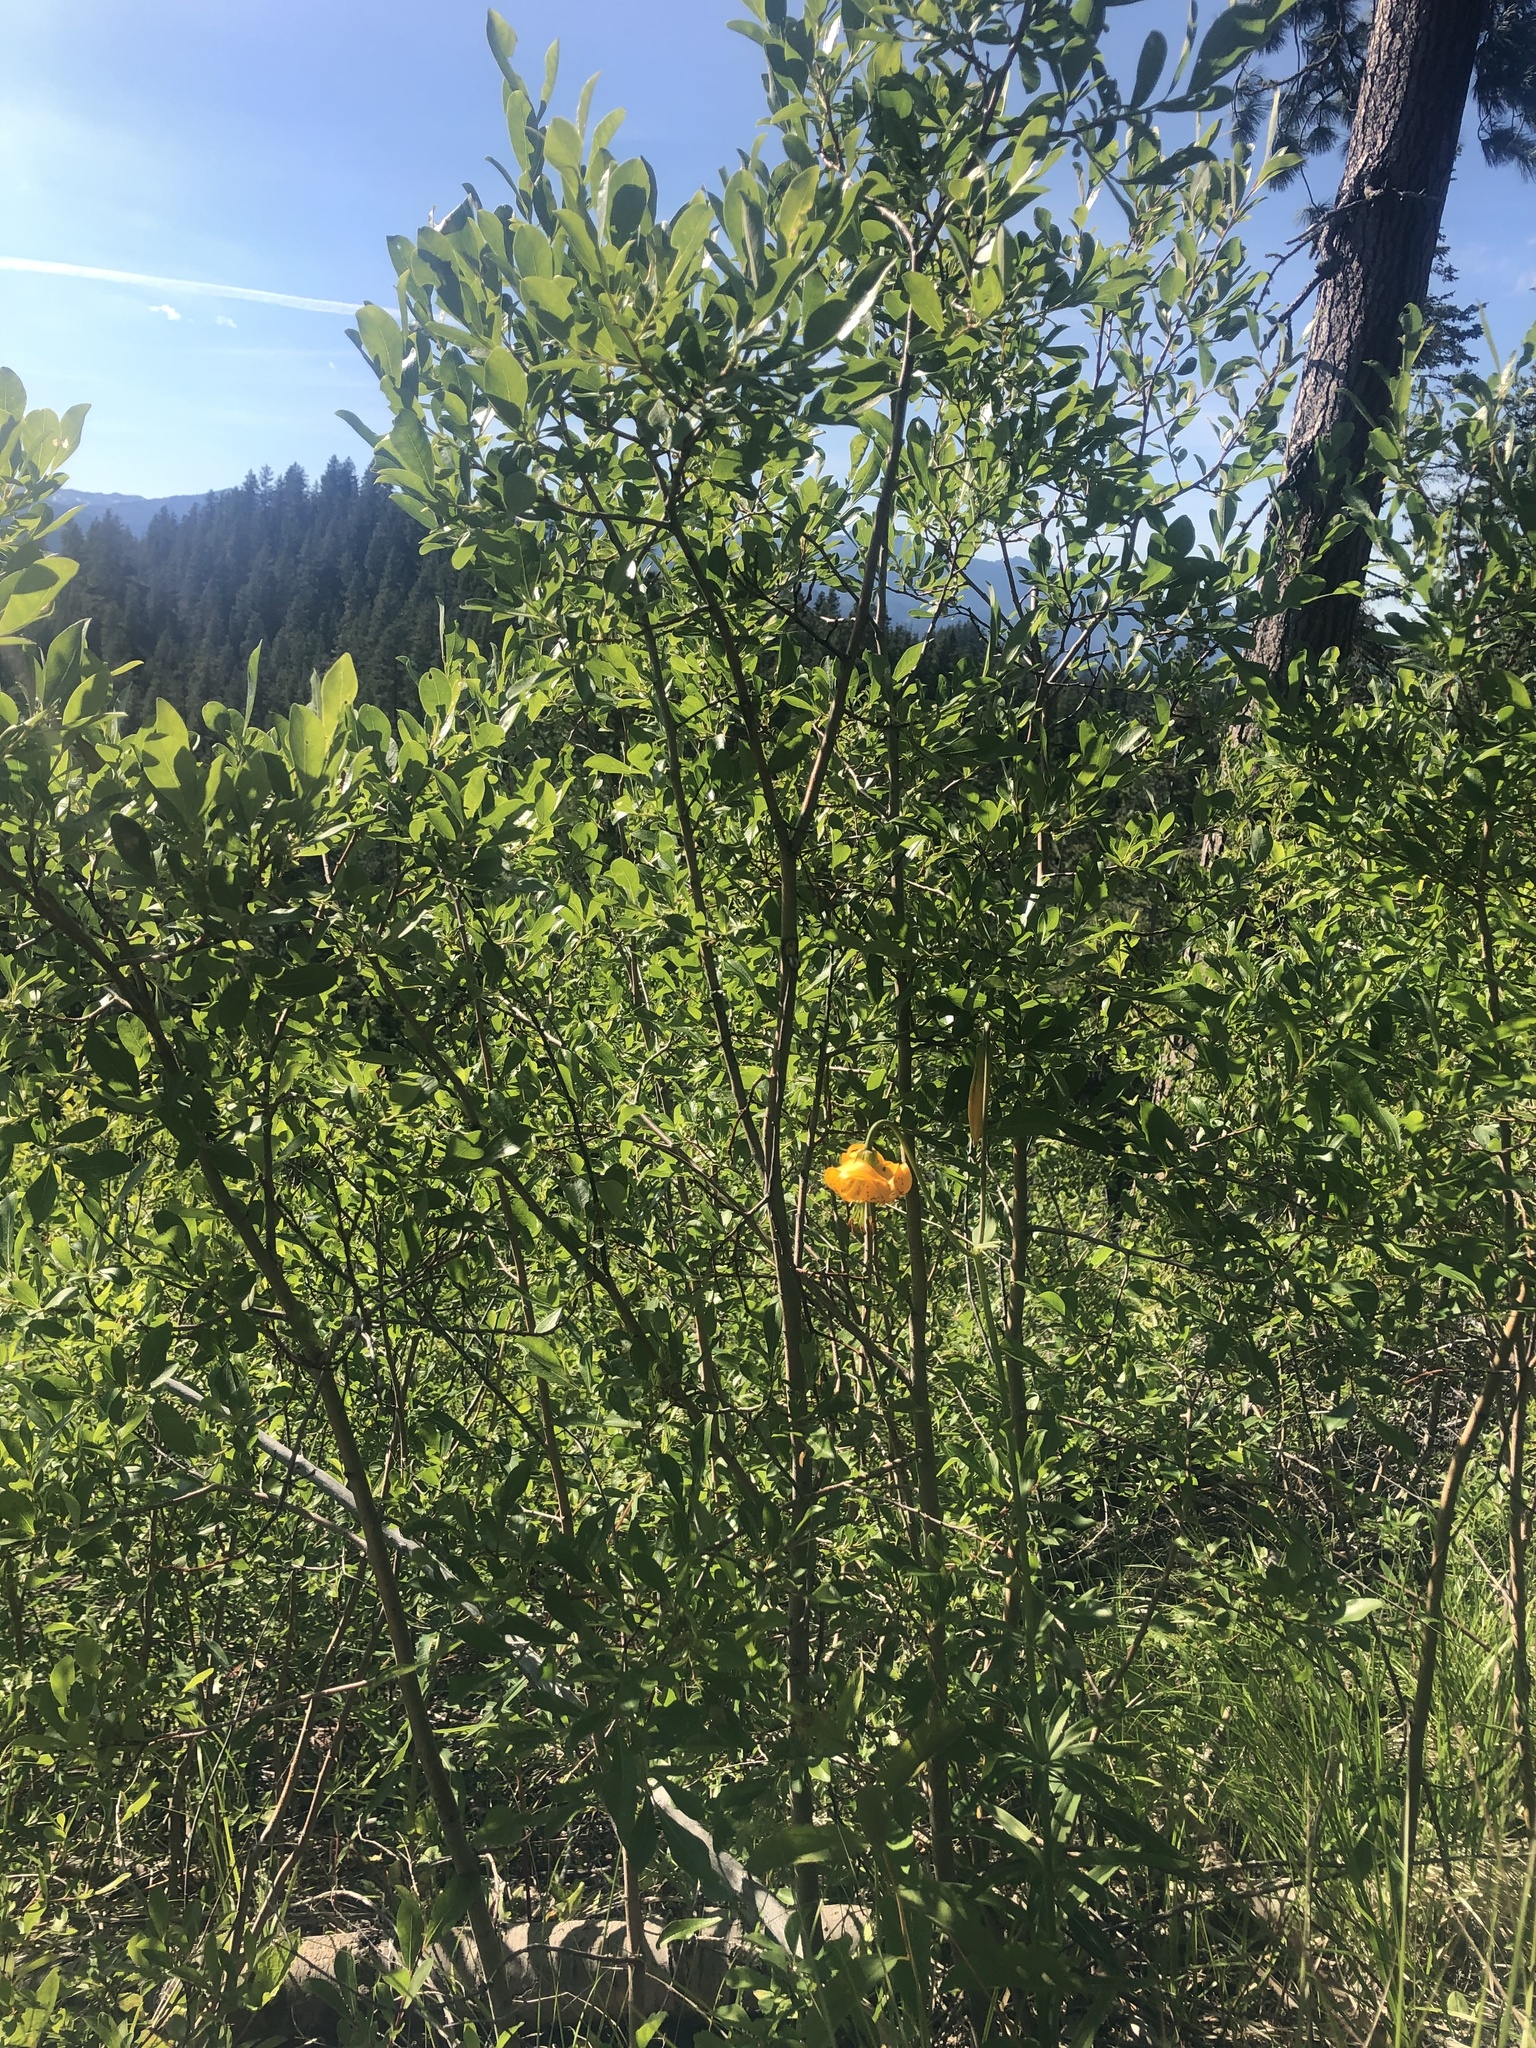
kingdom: Plantae
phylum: Tracheophyta
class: Liliopsida
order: Liliales
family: Liliaceae
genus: Lilium
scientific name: Lilium columbianum
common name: Columbia lily
